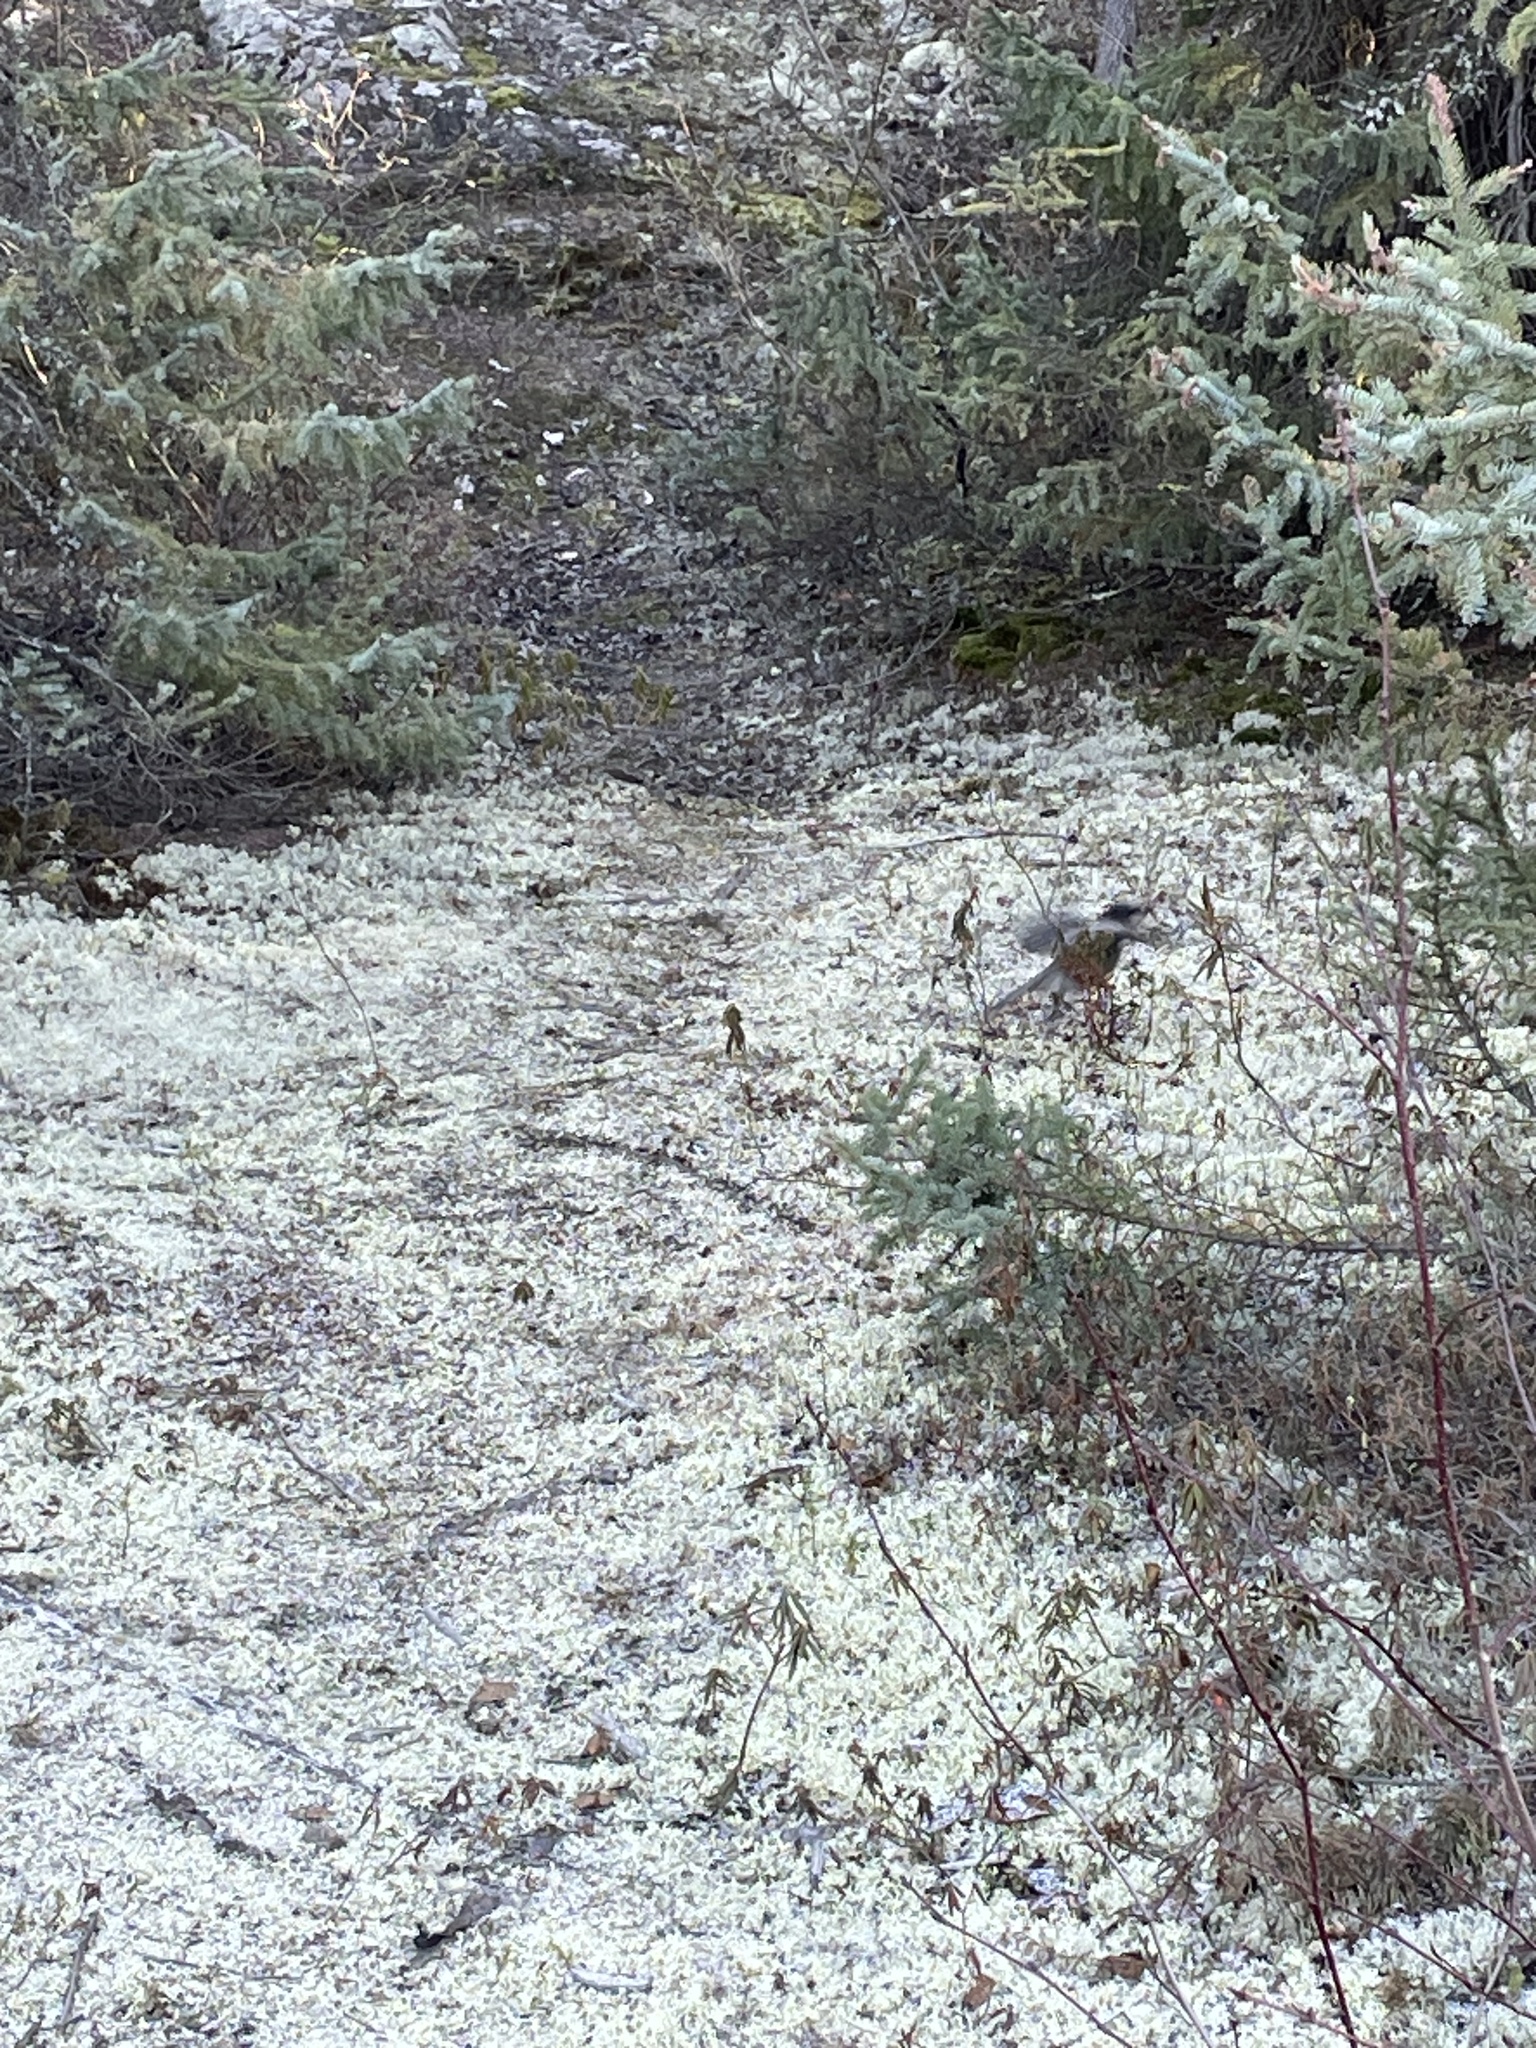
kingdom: Animalia
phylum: Chordata
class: Aves
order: Passeriformes
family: Corvidae
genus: Perisoreus
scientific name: Perisoreus canadensis
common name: Gray jay
